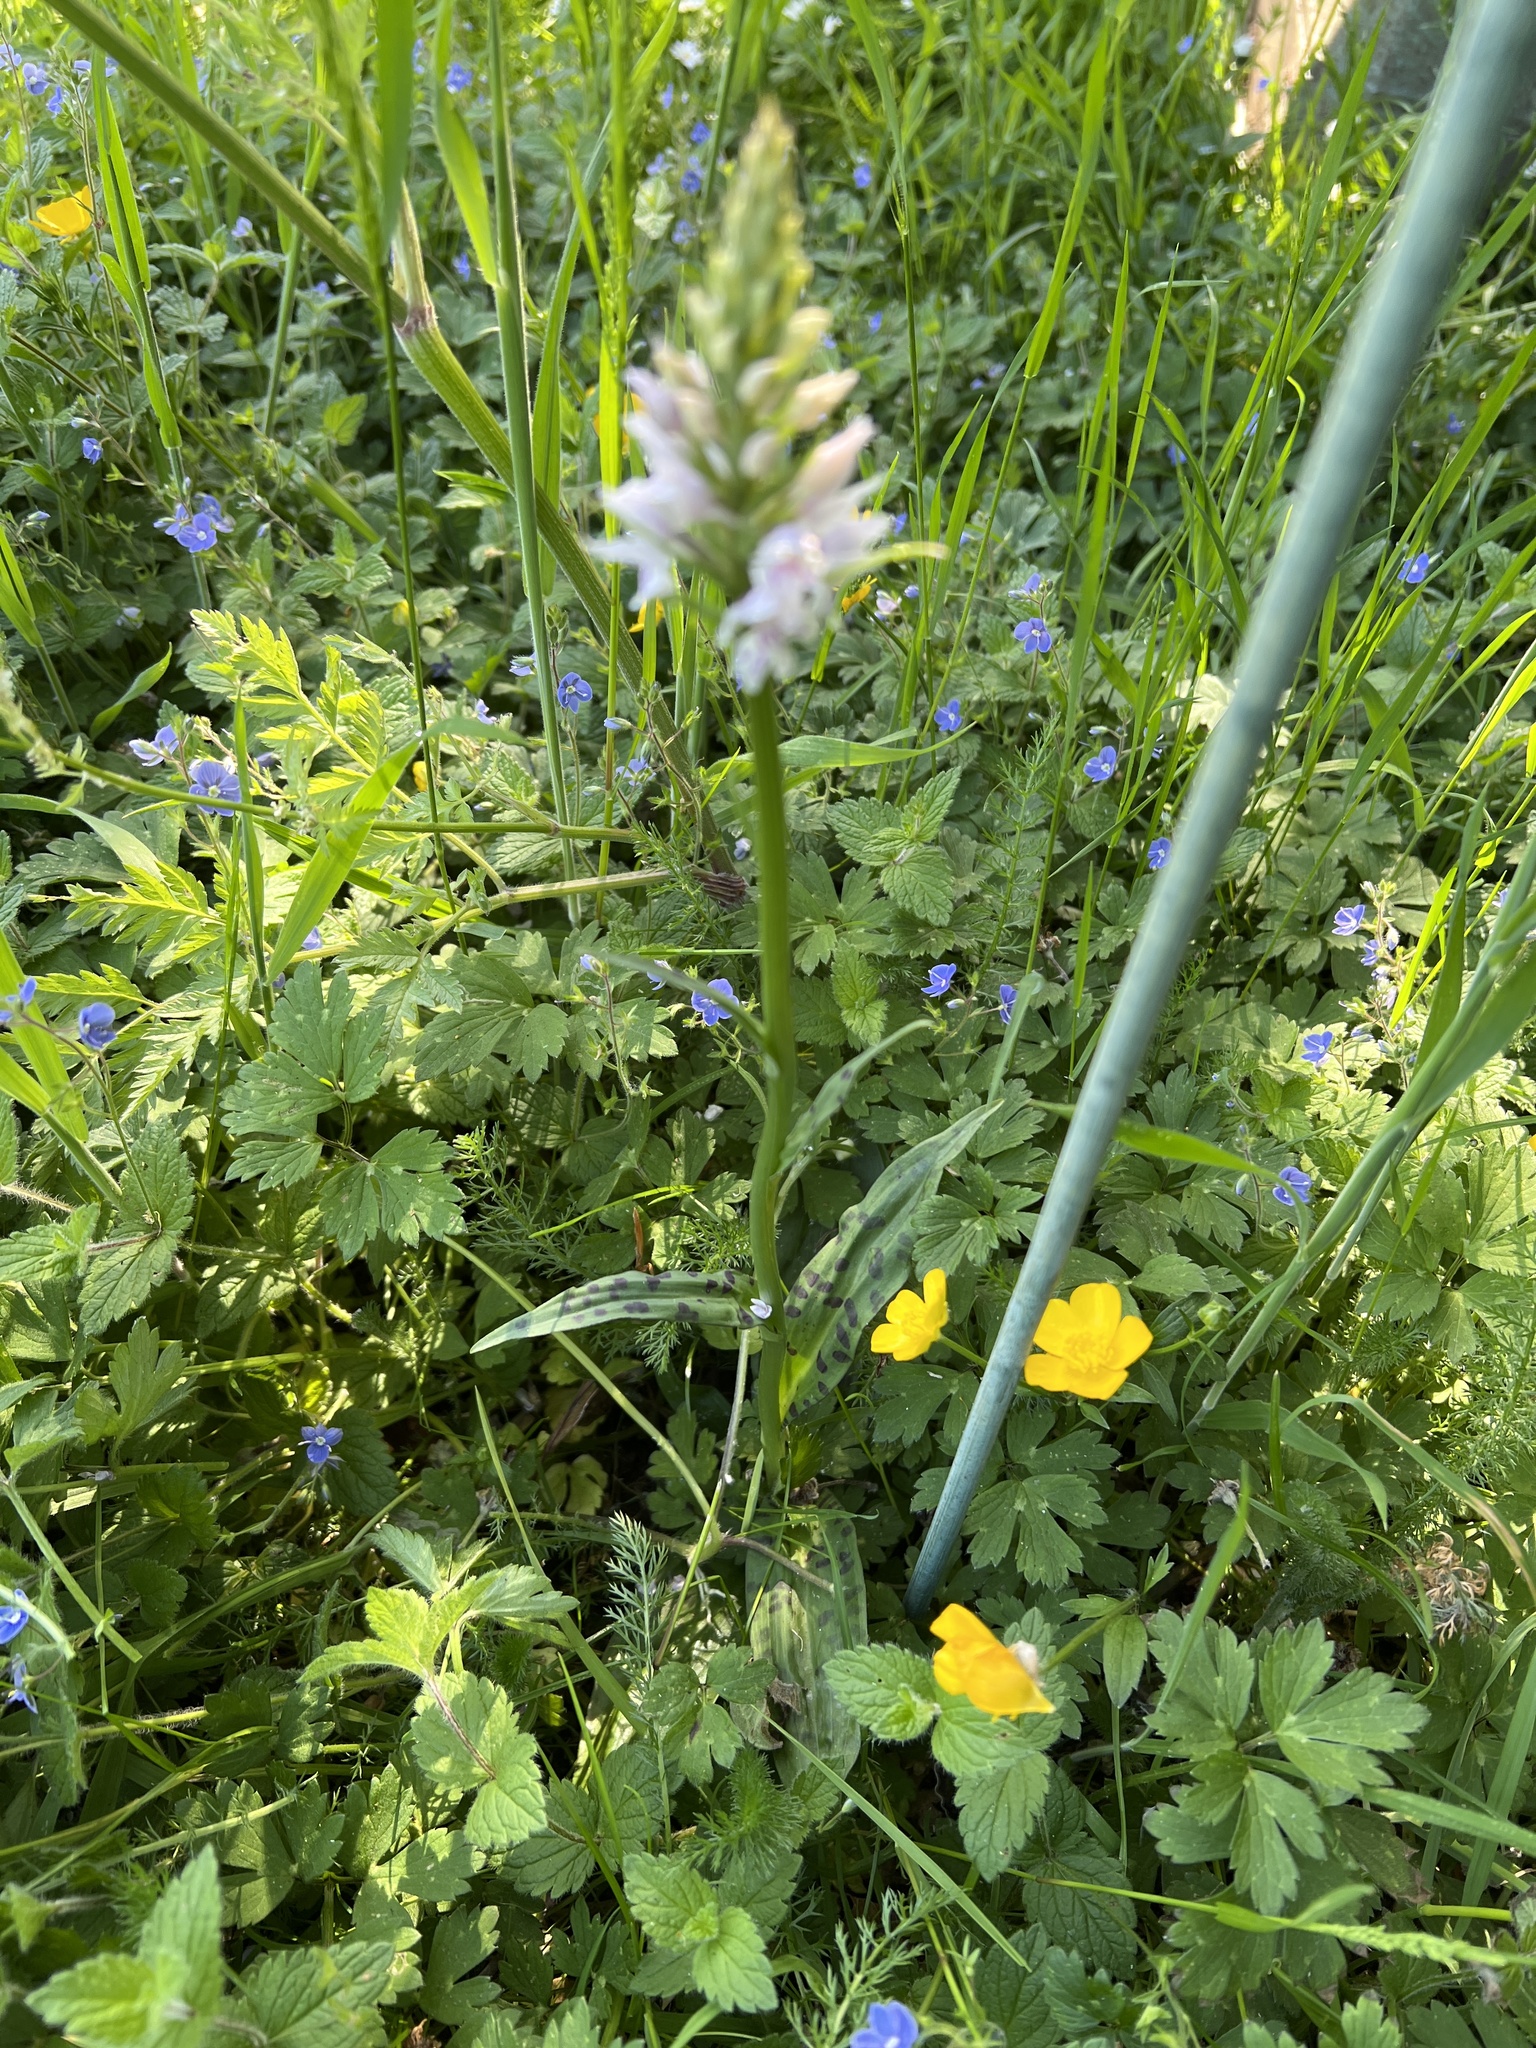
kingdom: Plantae
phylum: Tracheophyta
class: Liliopsida
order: Asparagales
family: Orchidaceae
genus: Dactylorhiza
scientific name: Dactylorhiza maculata
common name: Heath spotted-orchid
